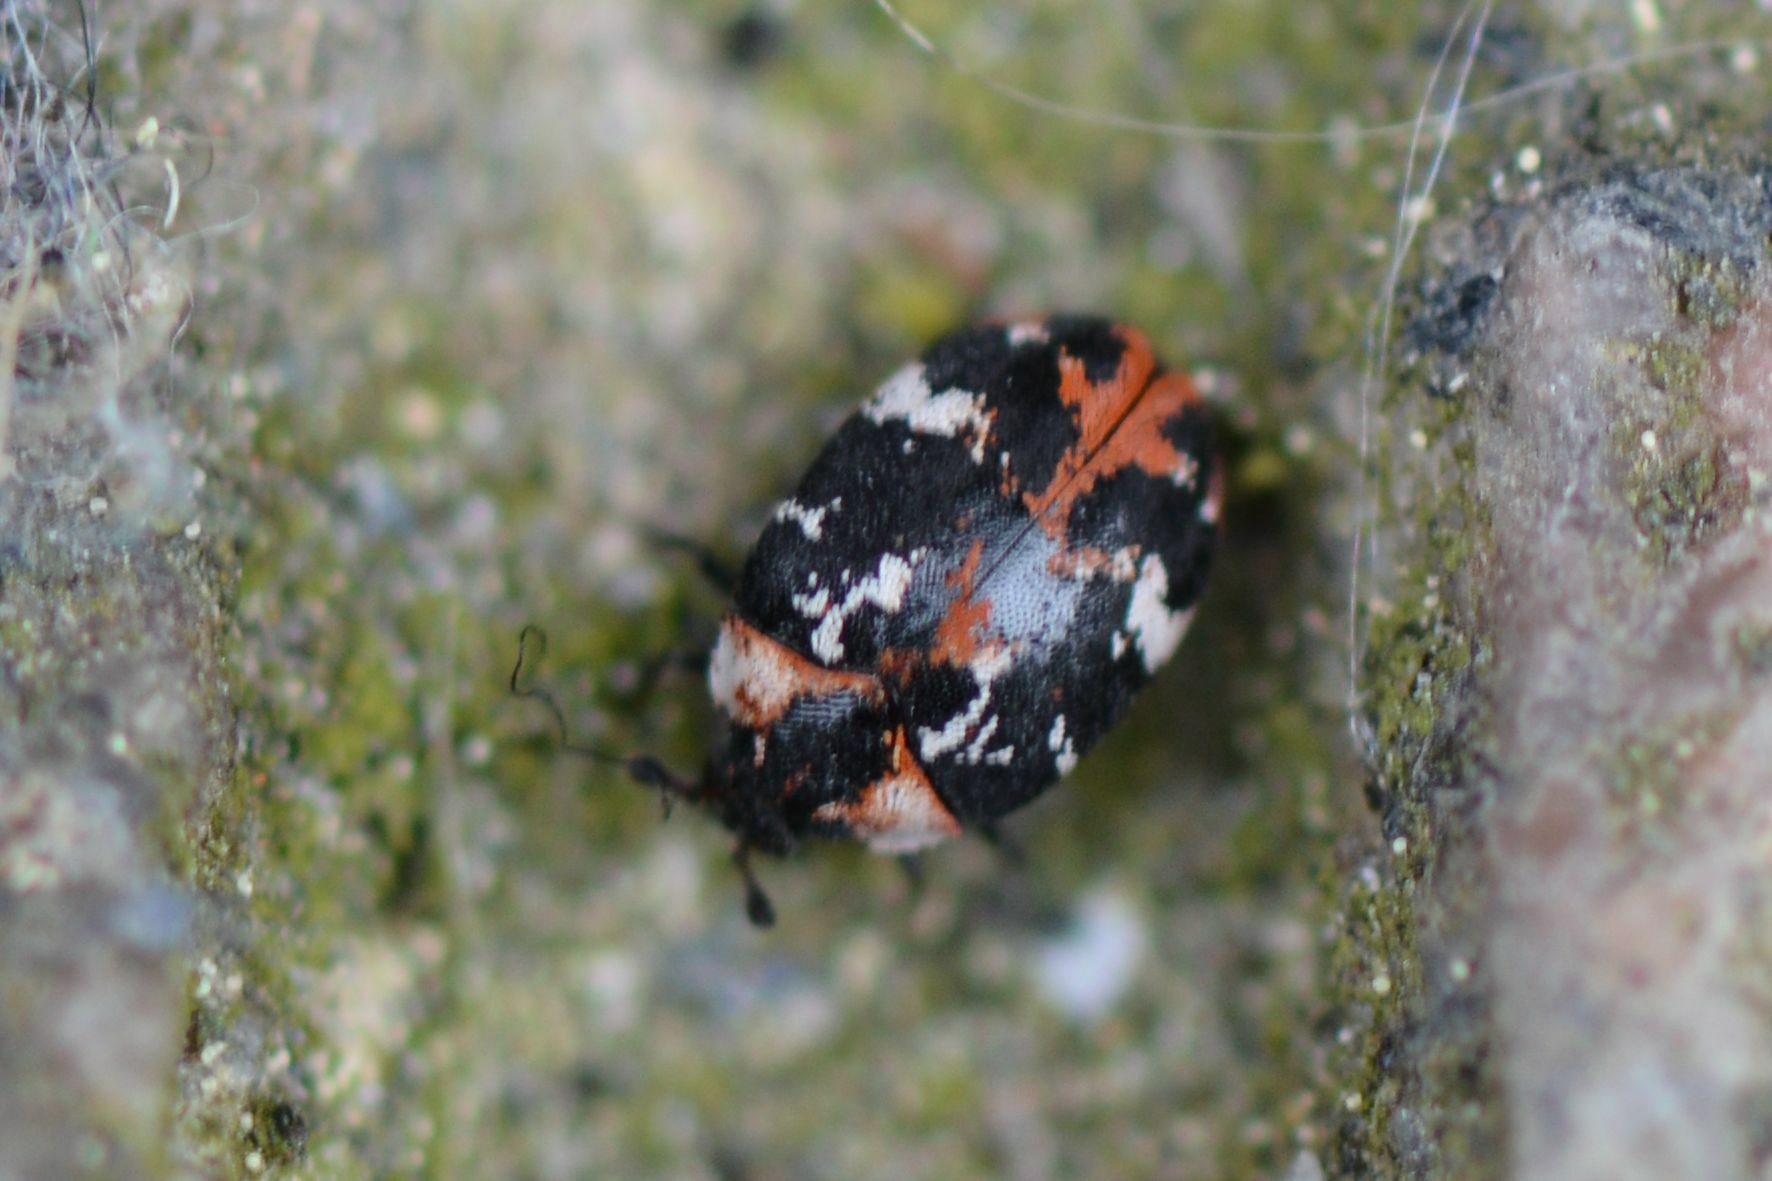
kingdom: Animalia
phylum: Arthropoda
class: Insecta
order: Coleoptera
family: Dermestidae
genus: Anthrenus
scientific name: Anthrenus scrophulariae
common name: Buffalo carpet beetle
